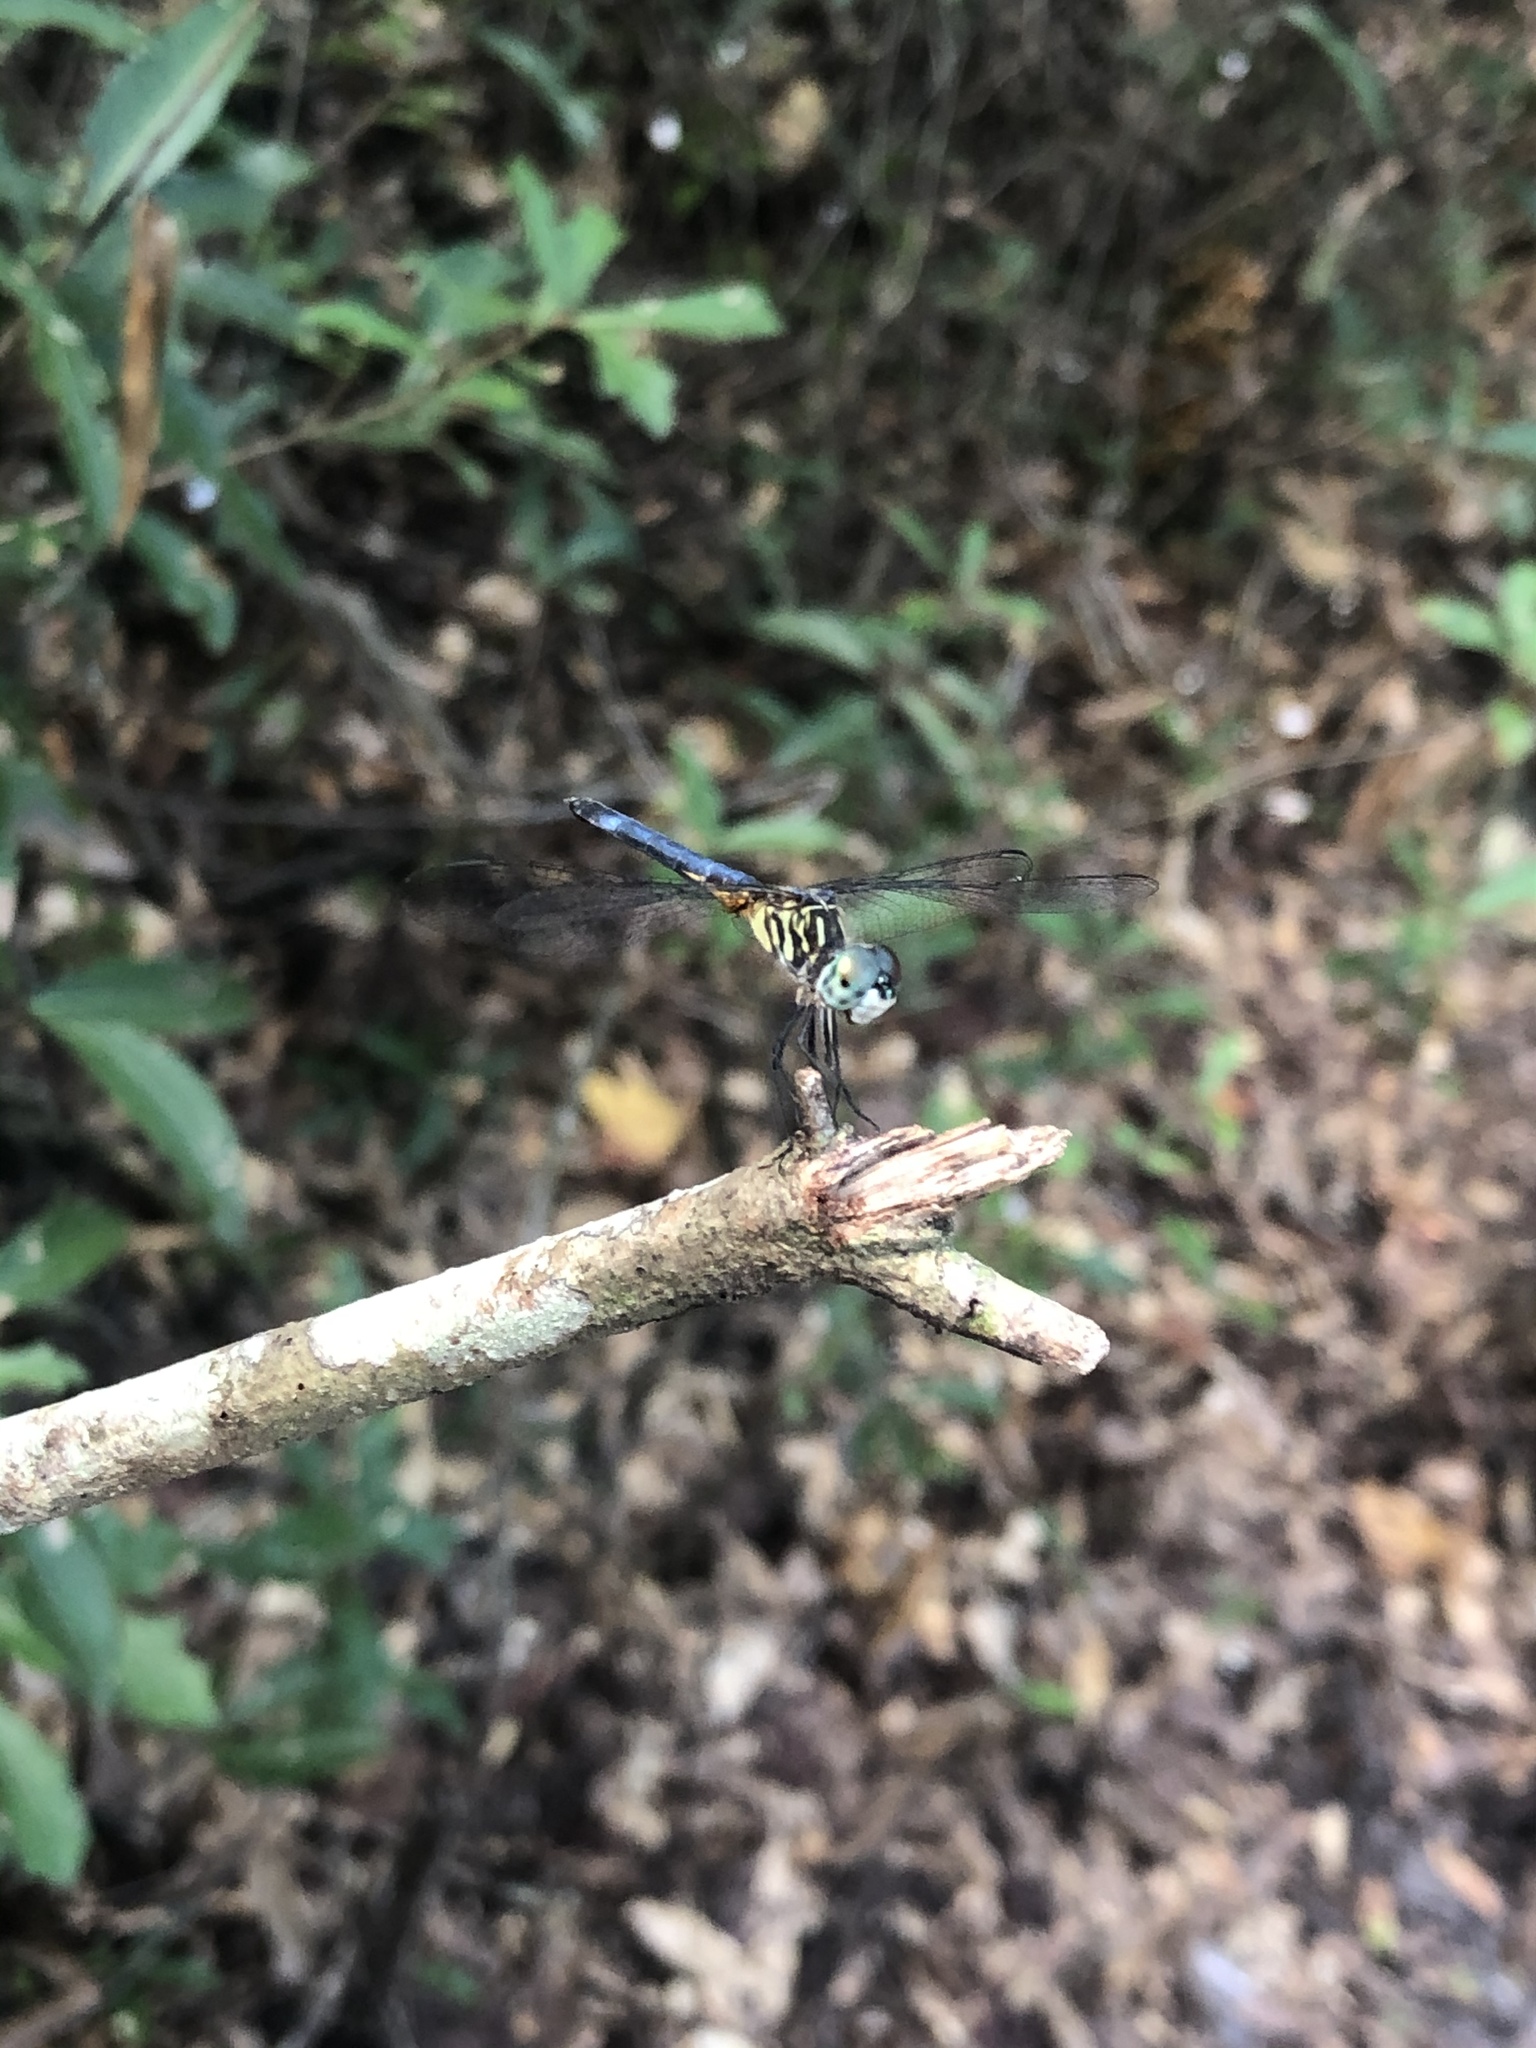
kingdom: Animalia
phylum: Arthropoda
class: Insecta
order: Odonata
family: Libellulidae
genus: Pachydiplax
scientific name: Pachydiplax longipennis
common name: Blue dasher
